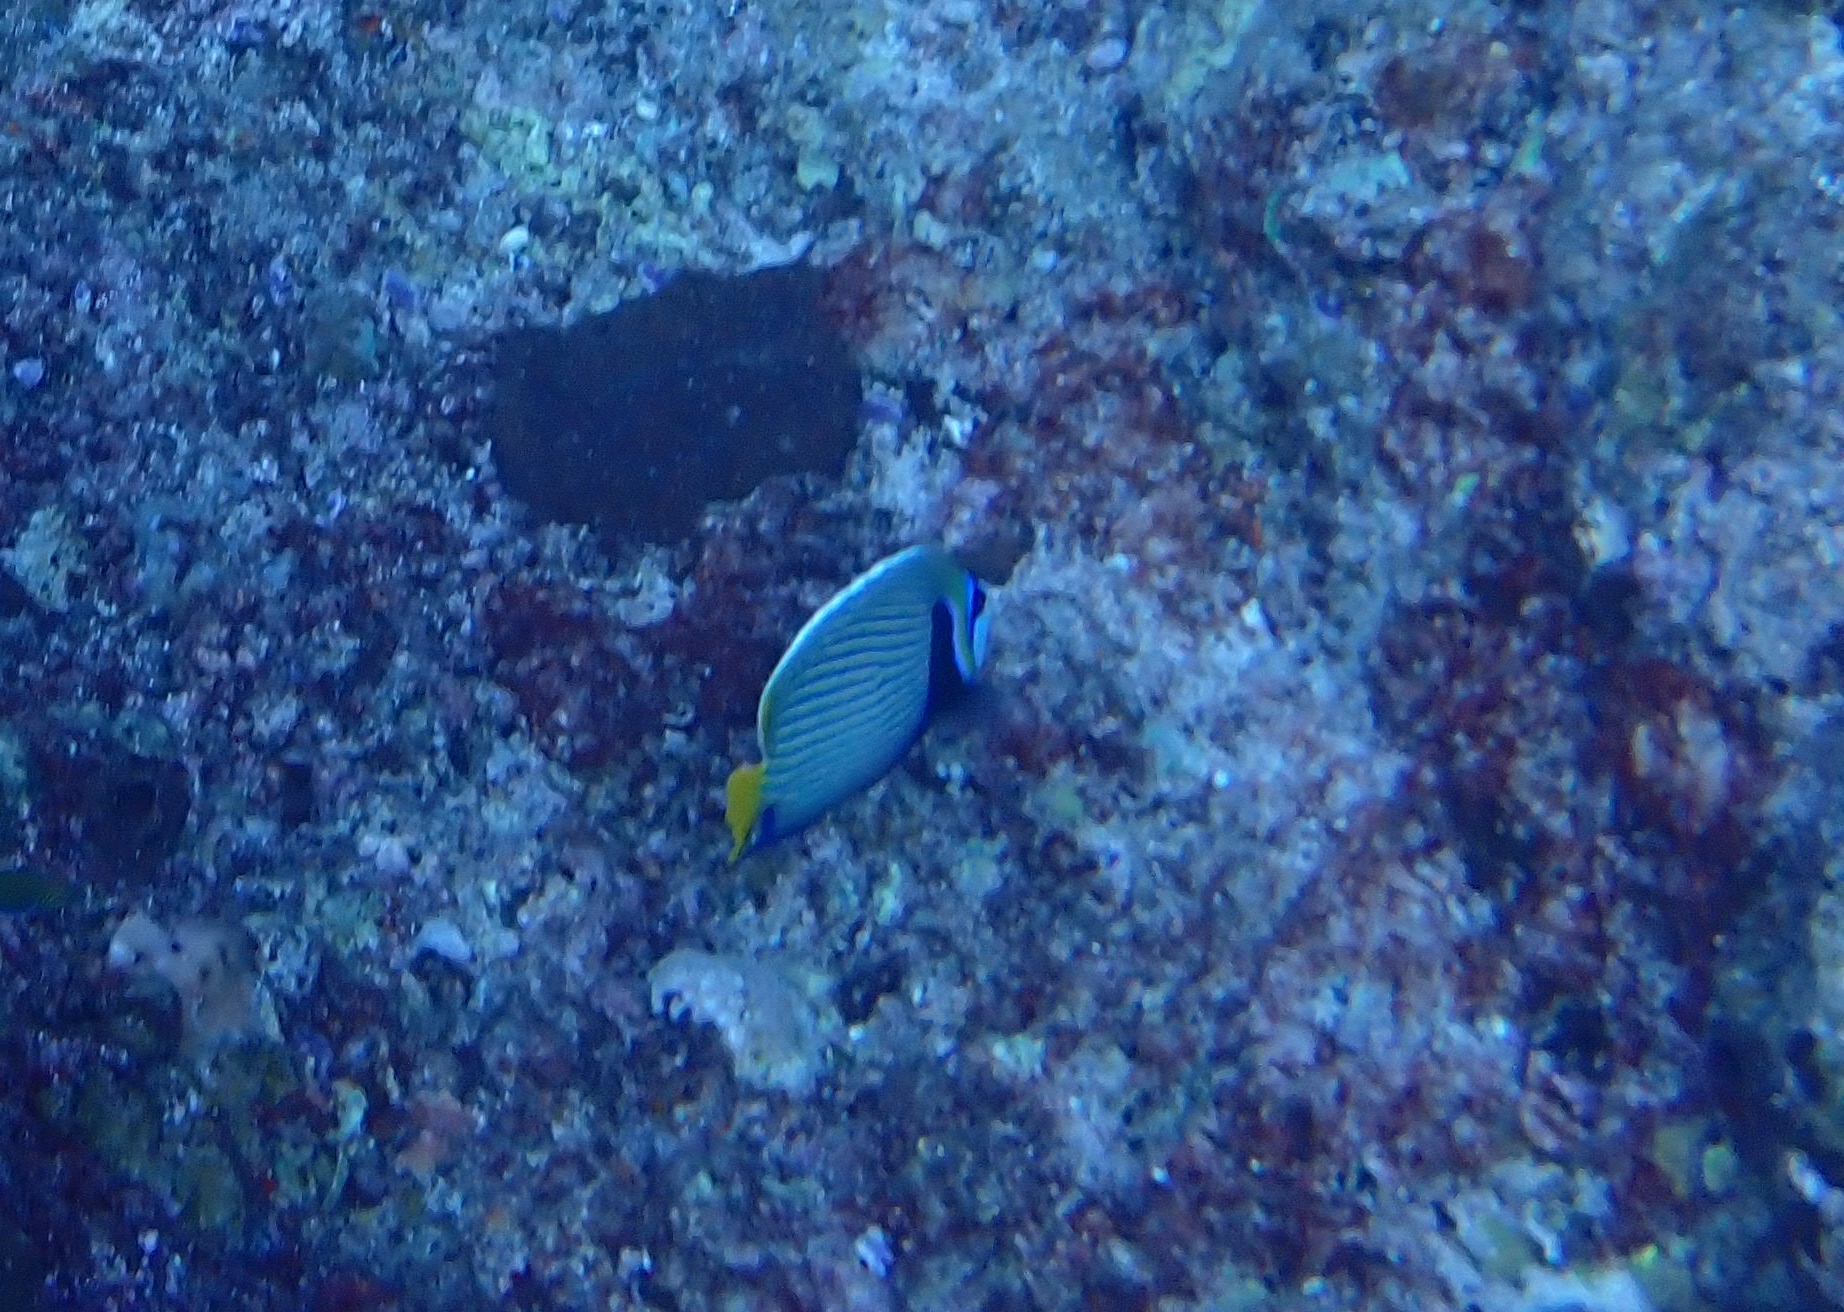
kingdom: Animalia
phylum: Chordata
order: Perciformes
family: Pomacanthidae
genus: Pomacanthus
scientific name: Pomacanthus imperator
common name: Emperor angelfish
